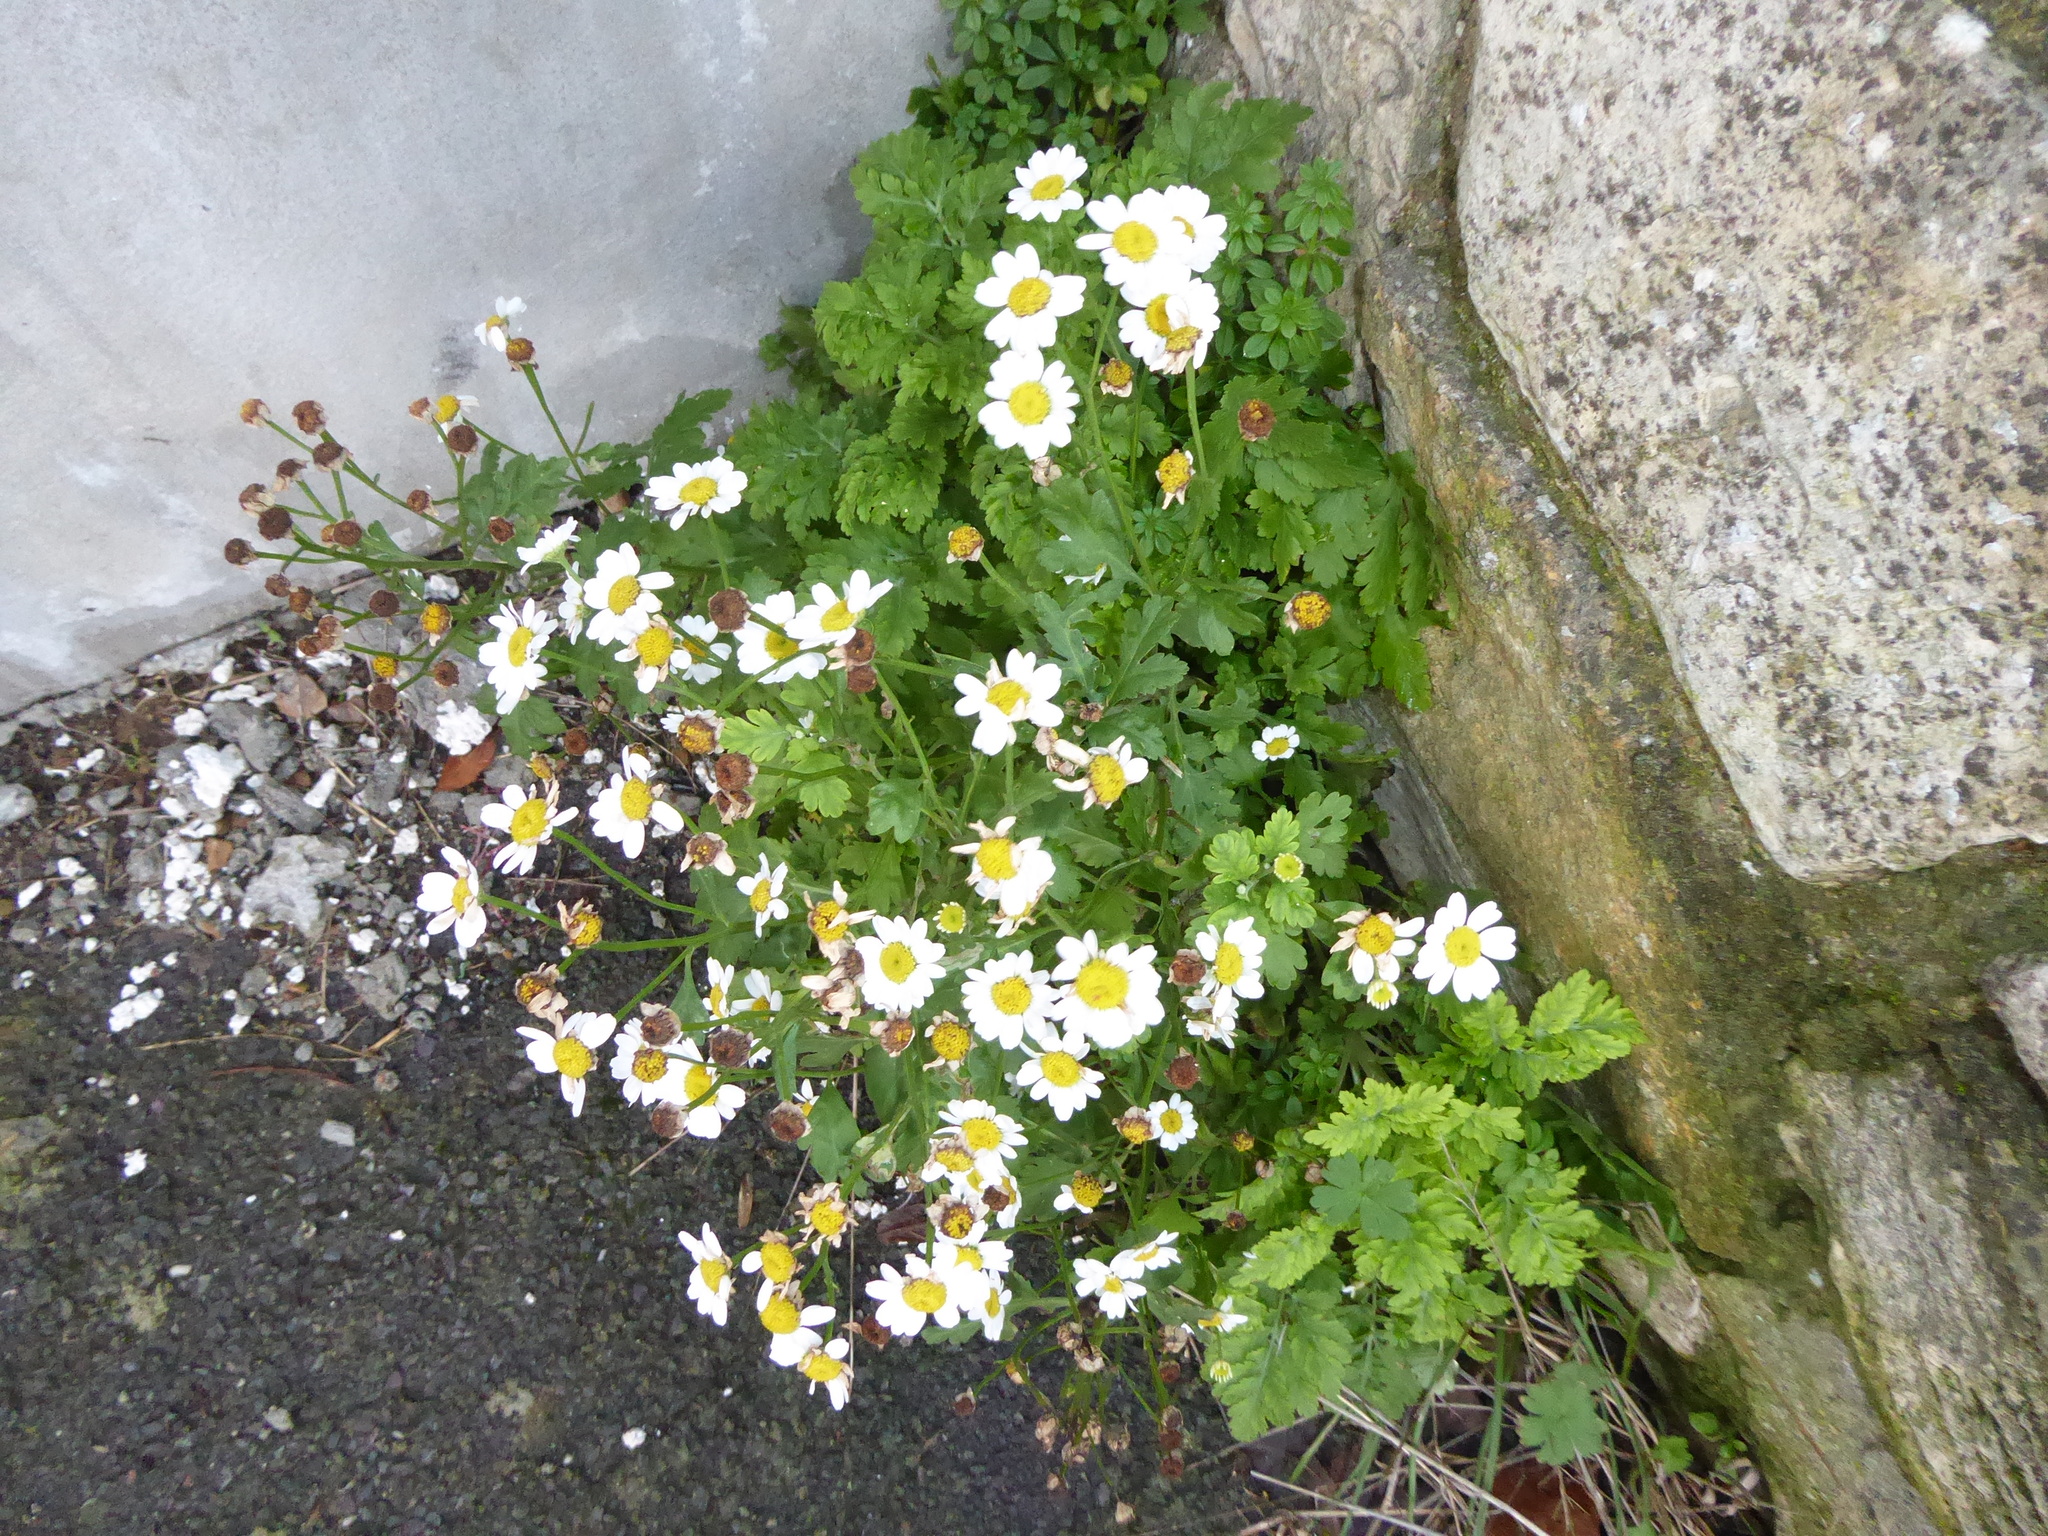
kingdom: Plantae
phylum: Tracheophyta
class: Magnoliopsida
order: Asterales
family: Asteraceae
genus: Tanacetum
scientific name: Tanacetum parthenium
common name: Feverfew
